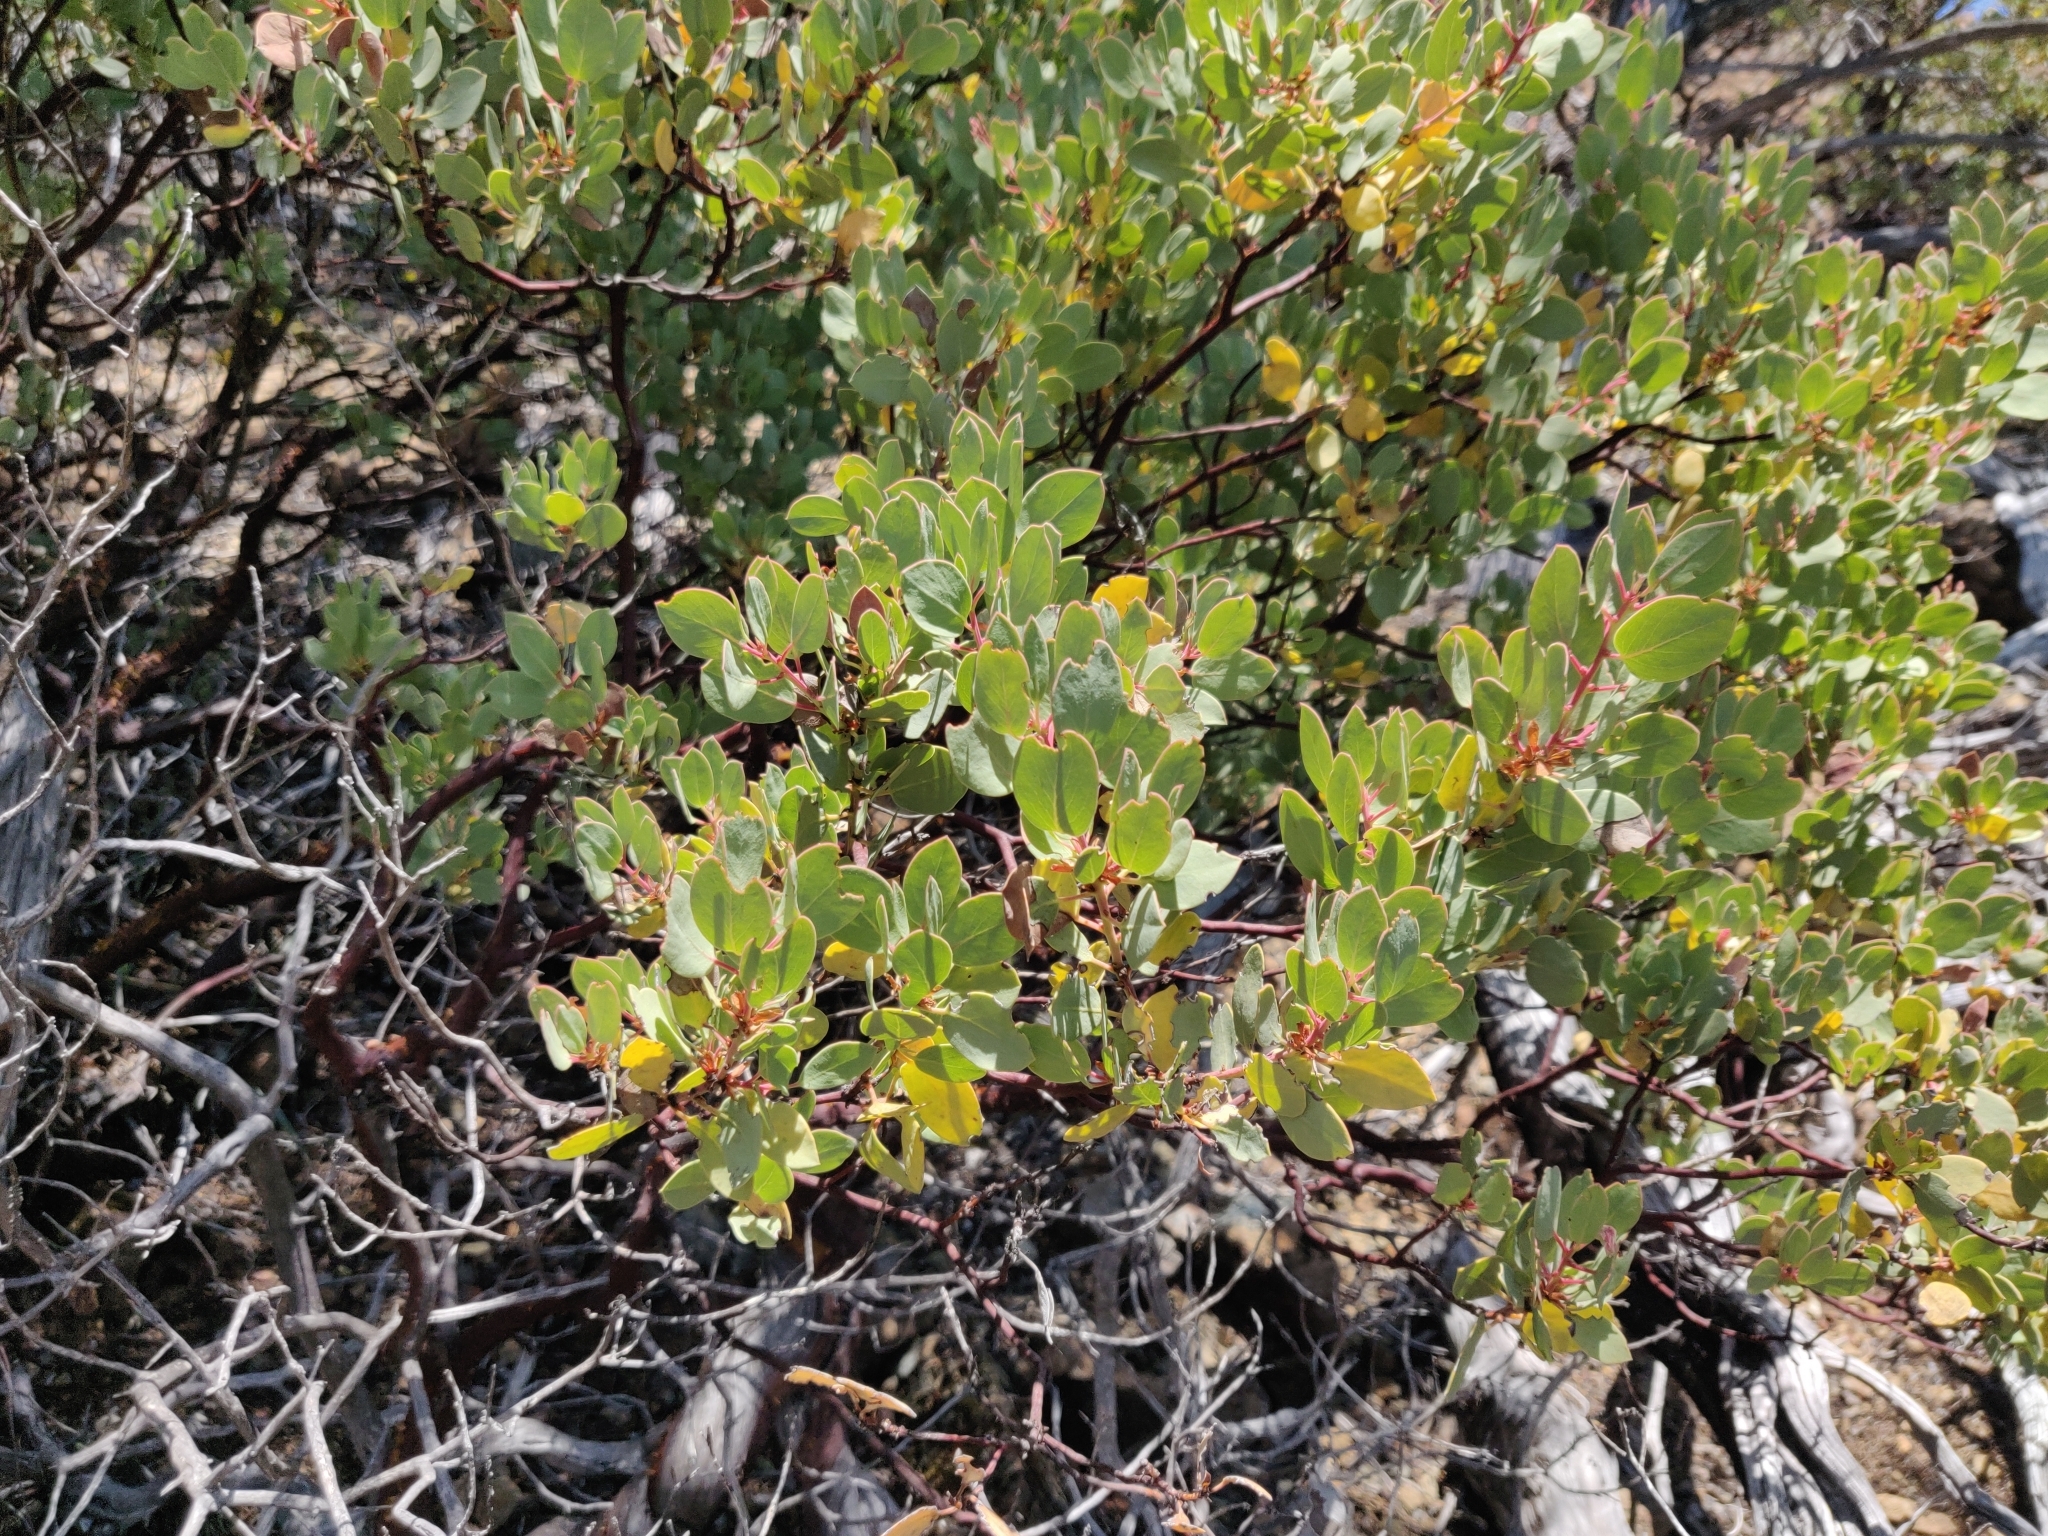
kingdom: Plantae
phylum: Tracheophyta
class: Magnoliopsida
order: Ericales
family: Ericaceae
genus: Arctostaphylos
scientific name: Arctostaphylos viscida
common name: White-leaf manzanita
